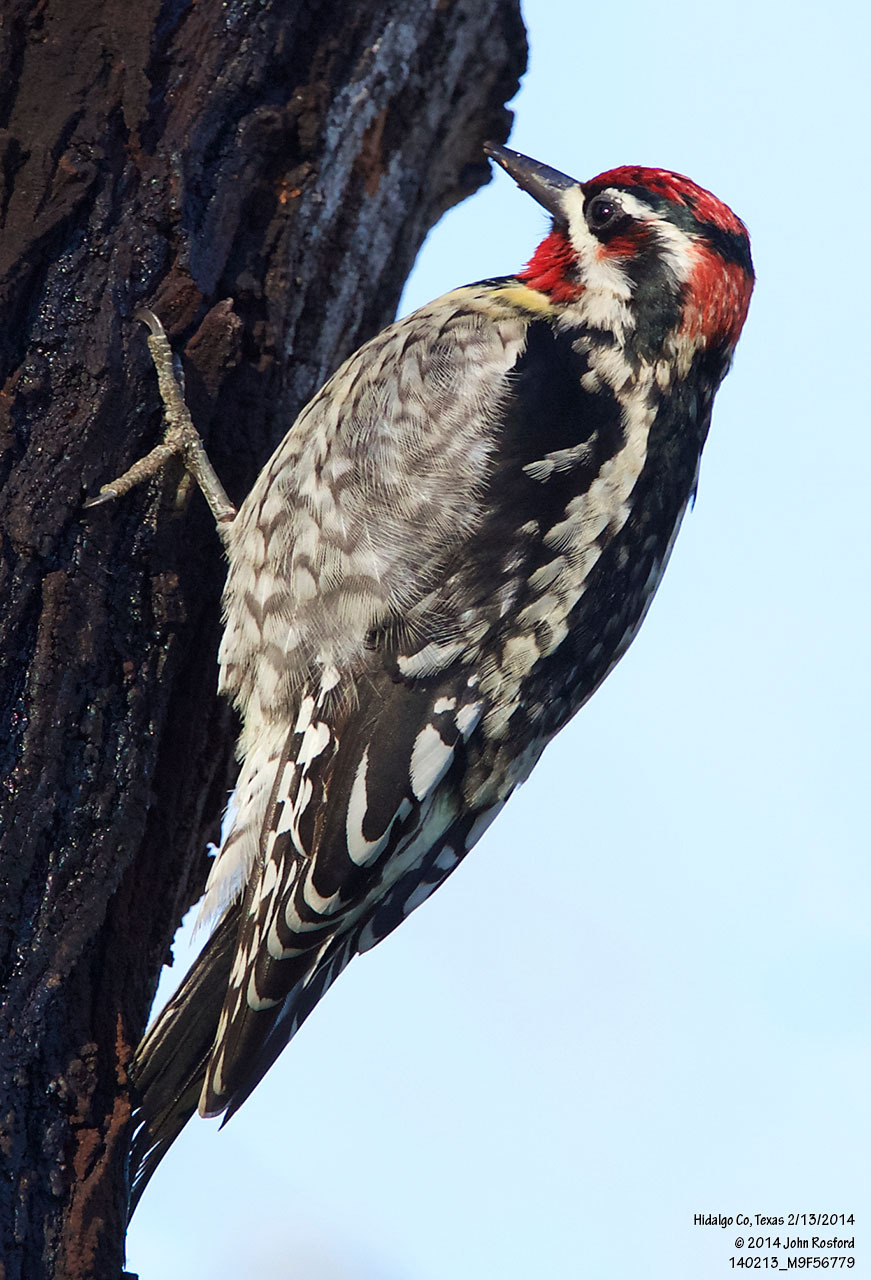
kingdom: Animalia
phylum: Chordata
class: Aves
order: Piciformes
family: Picidae
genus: Sphyrapicus
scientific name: Sphyrapicus nuchalis
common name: Red-naped sapsucker
